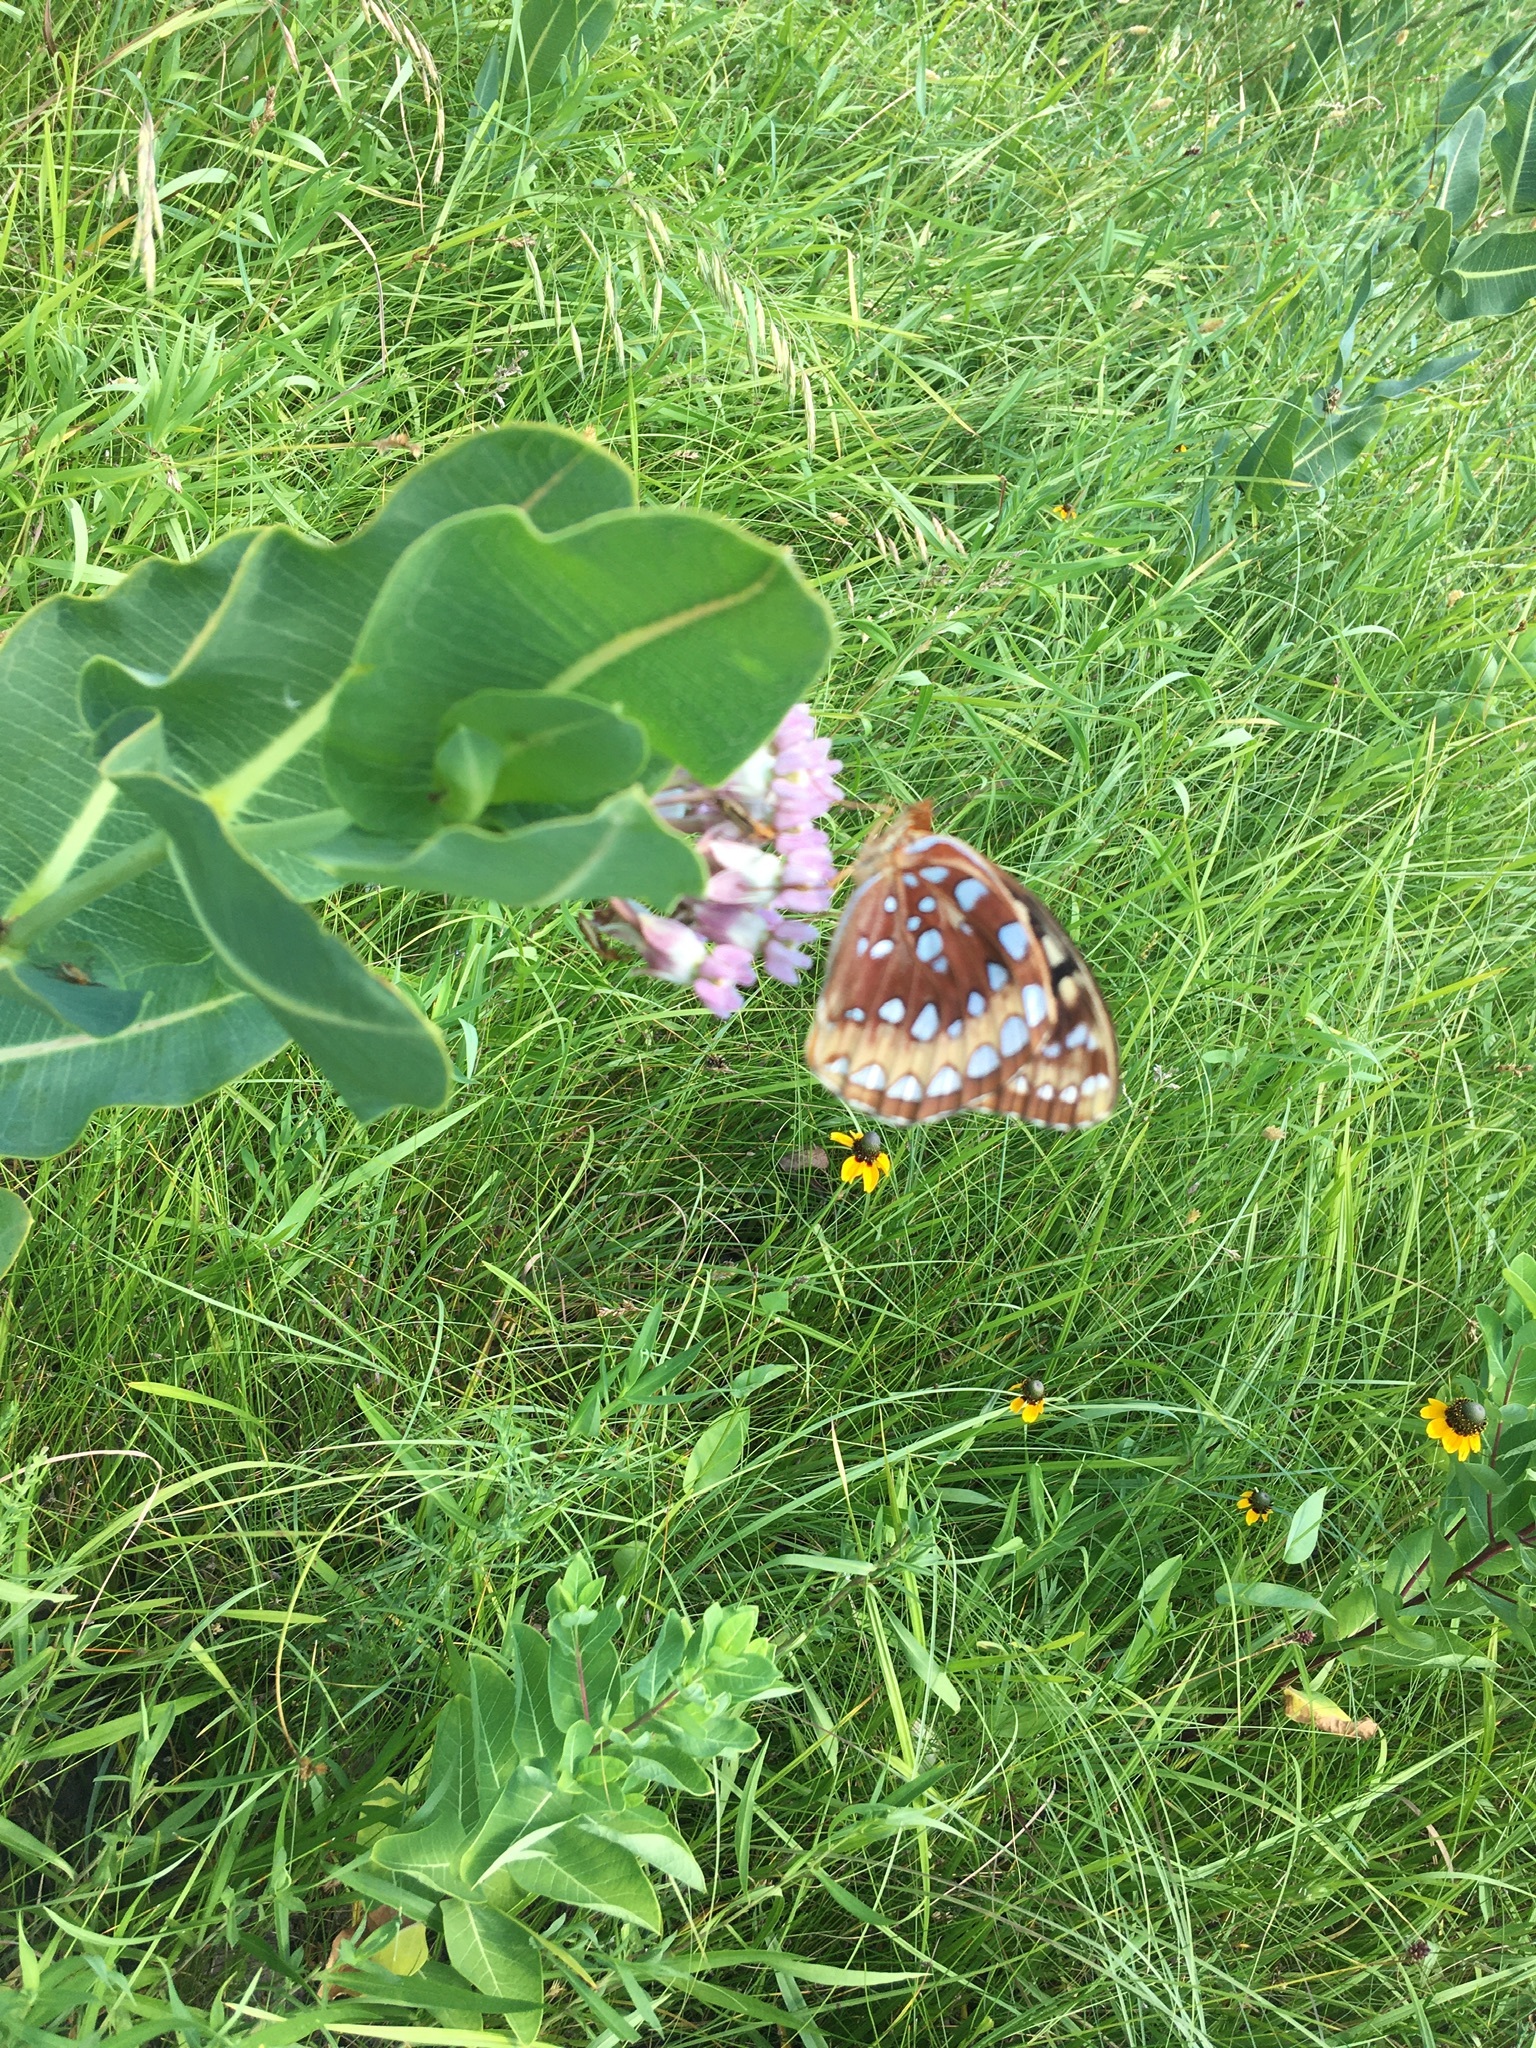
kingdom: Animalia
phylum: Arthropoda
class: Insecta
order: Lepidoptera
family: Nymphalidae
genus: Speyeria
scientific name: Speyeria cybele
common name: Great spangled fritillary
